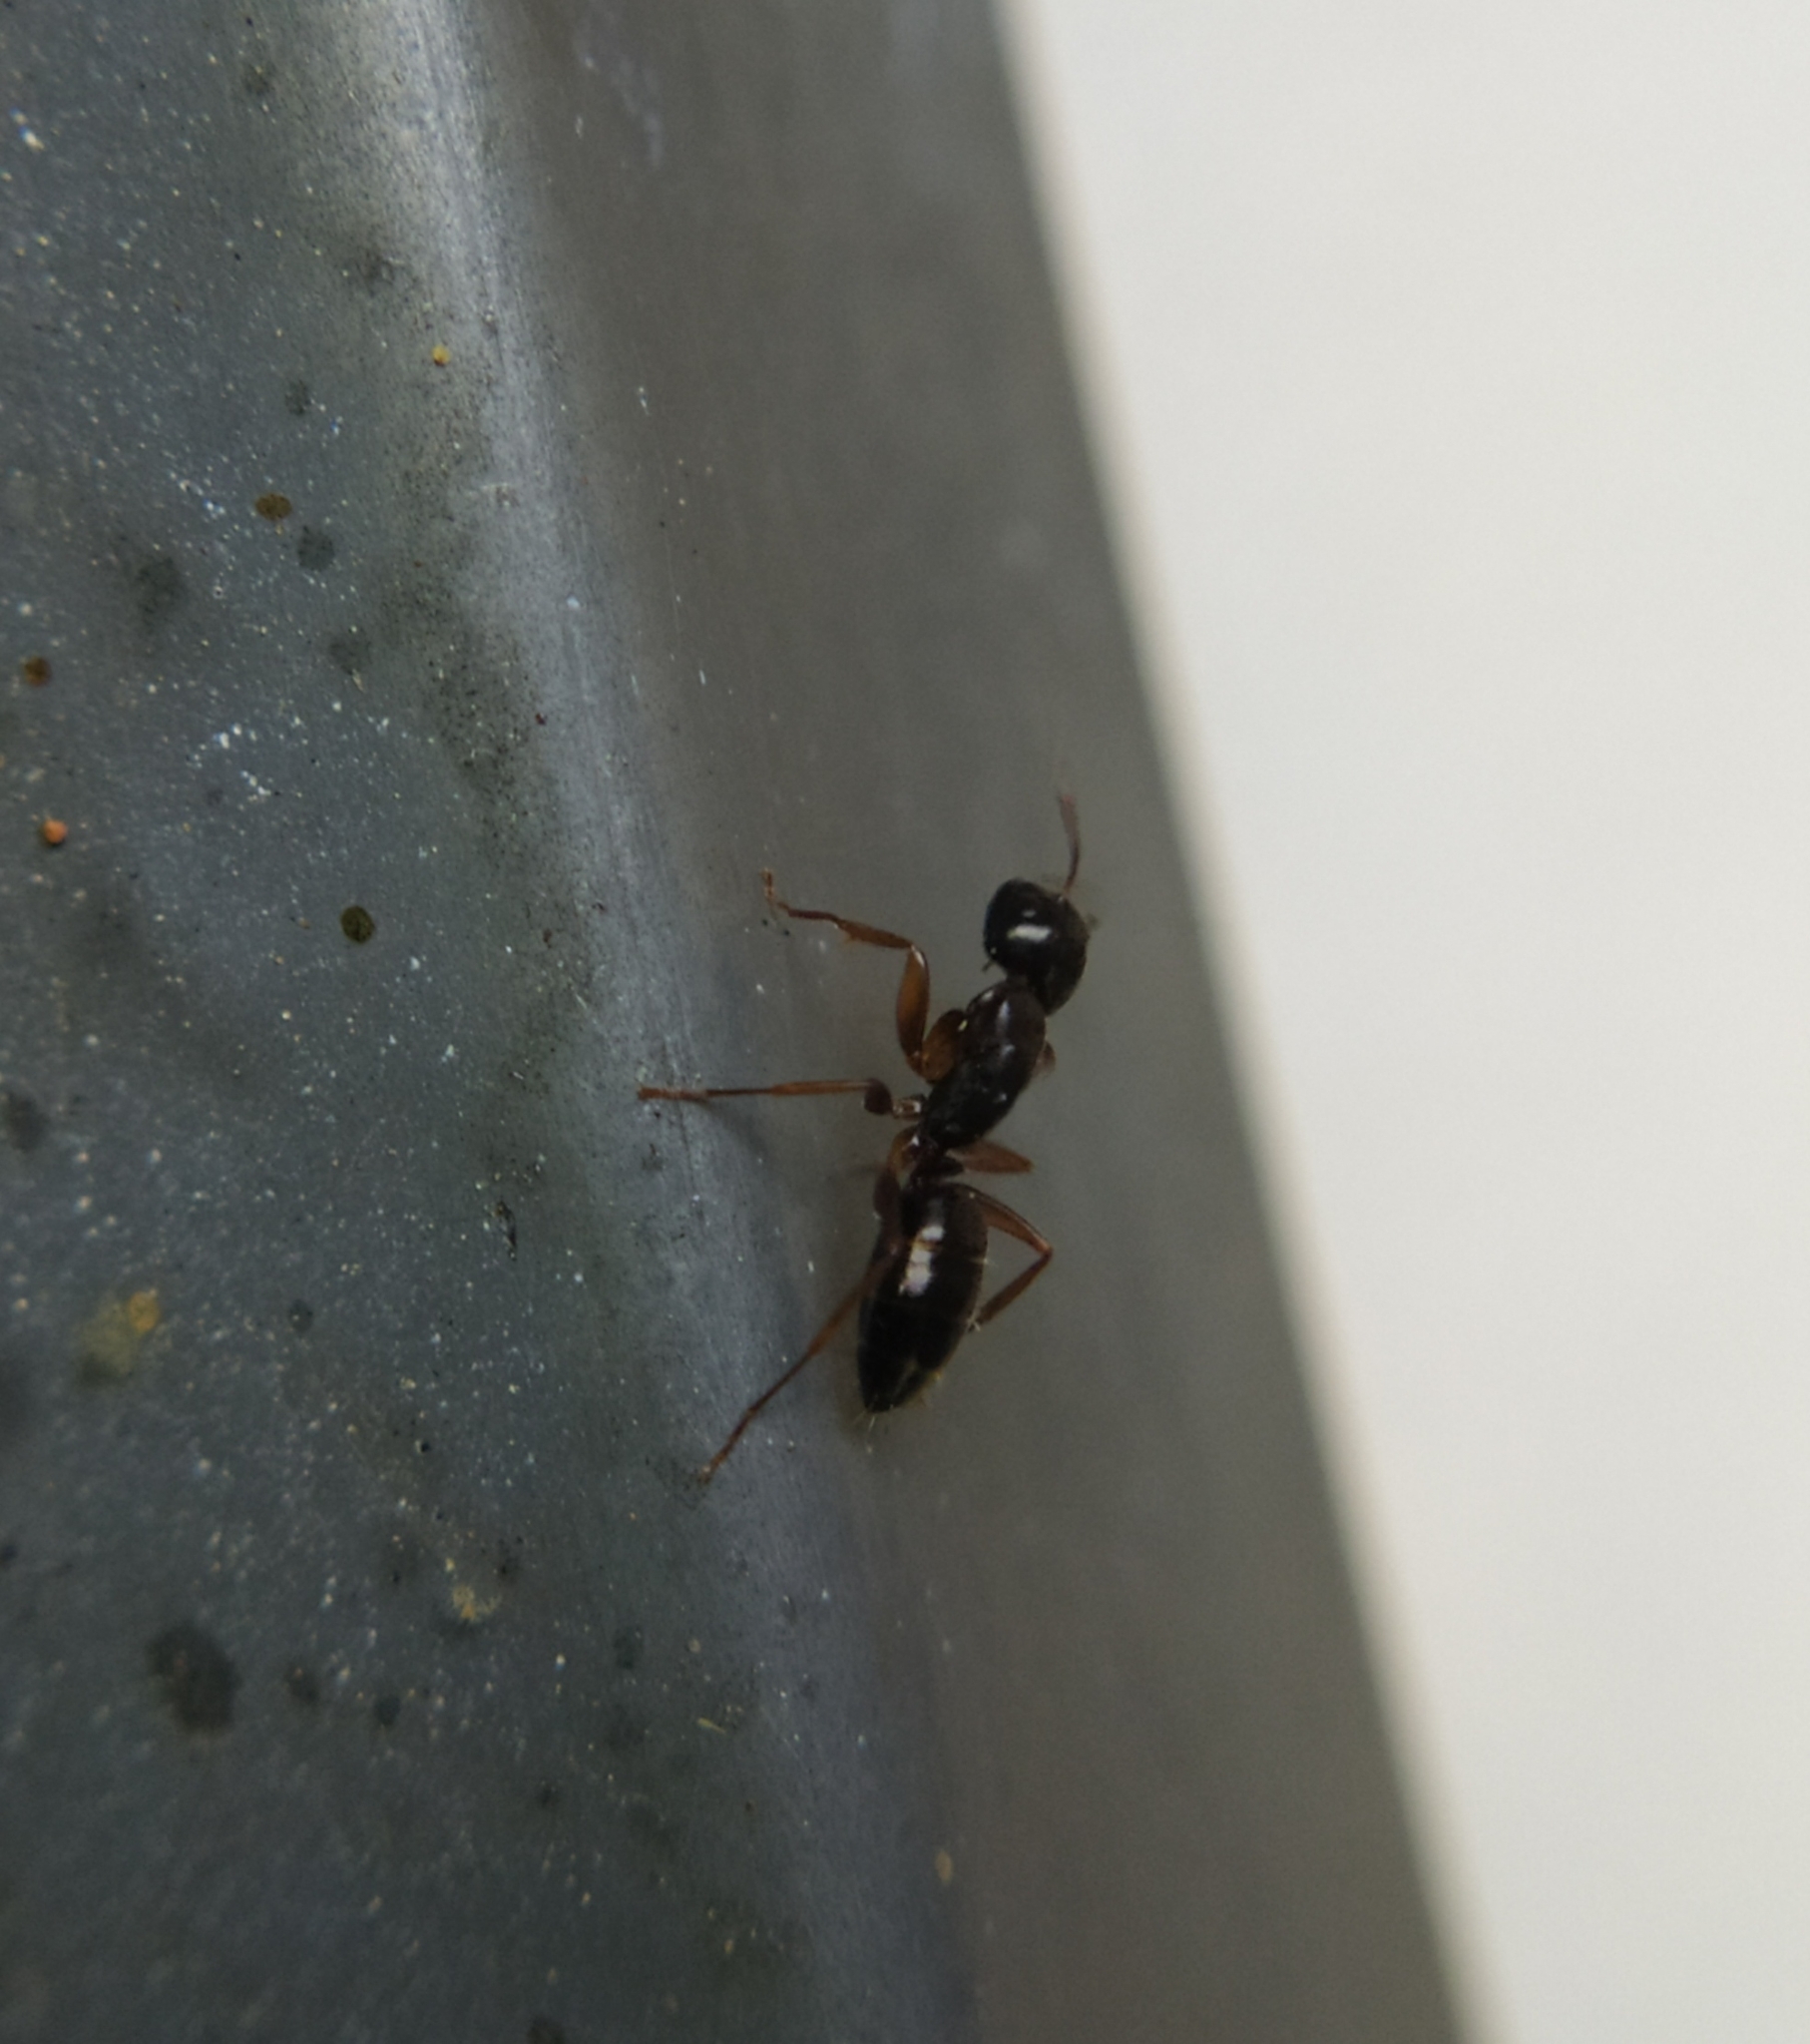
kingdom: Animalia
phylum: Arthropoda
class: Insecta
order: Hymenoptera
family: Formicidae
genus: Camponotus
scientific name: Camponotus fallax
